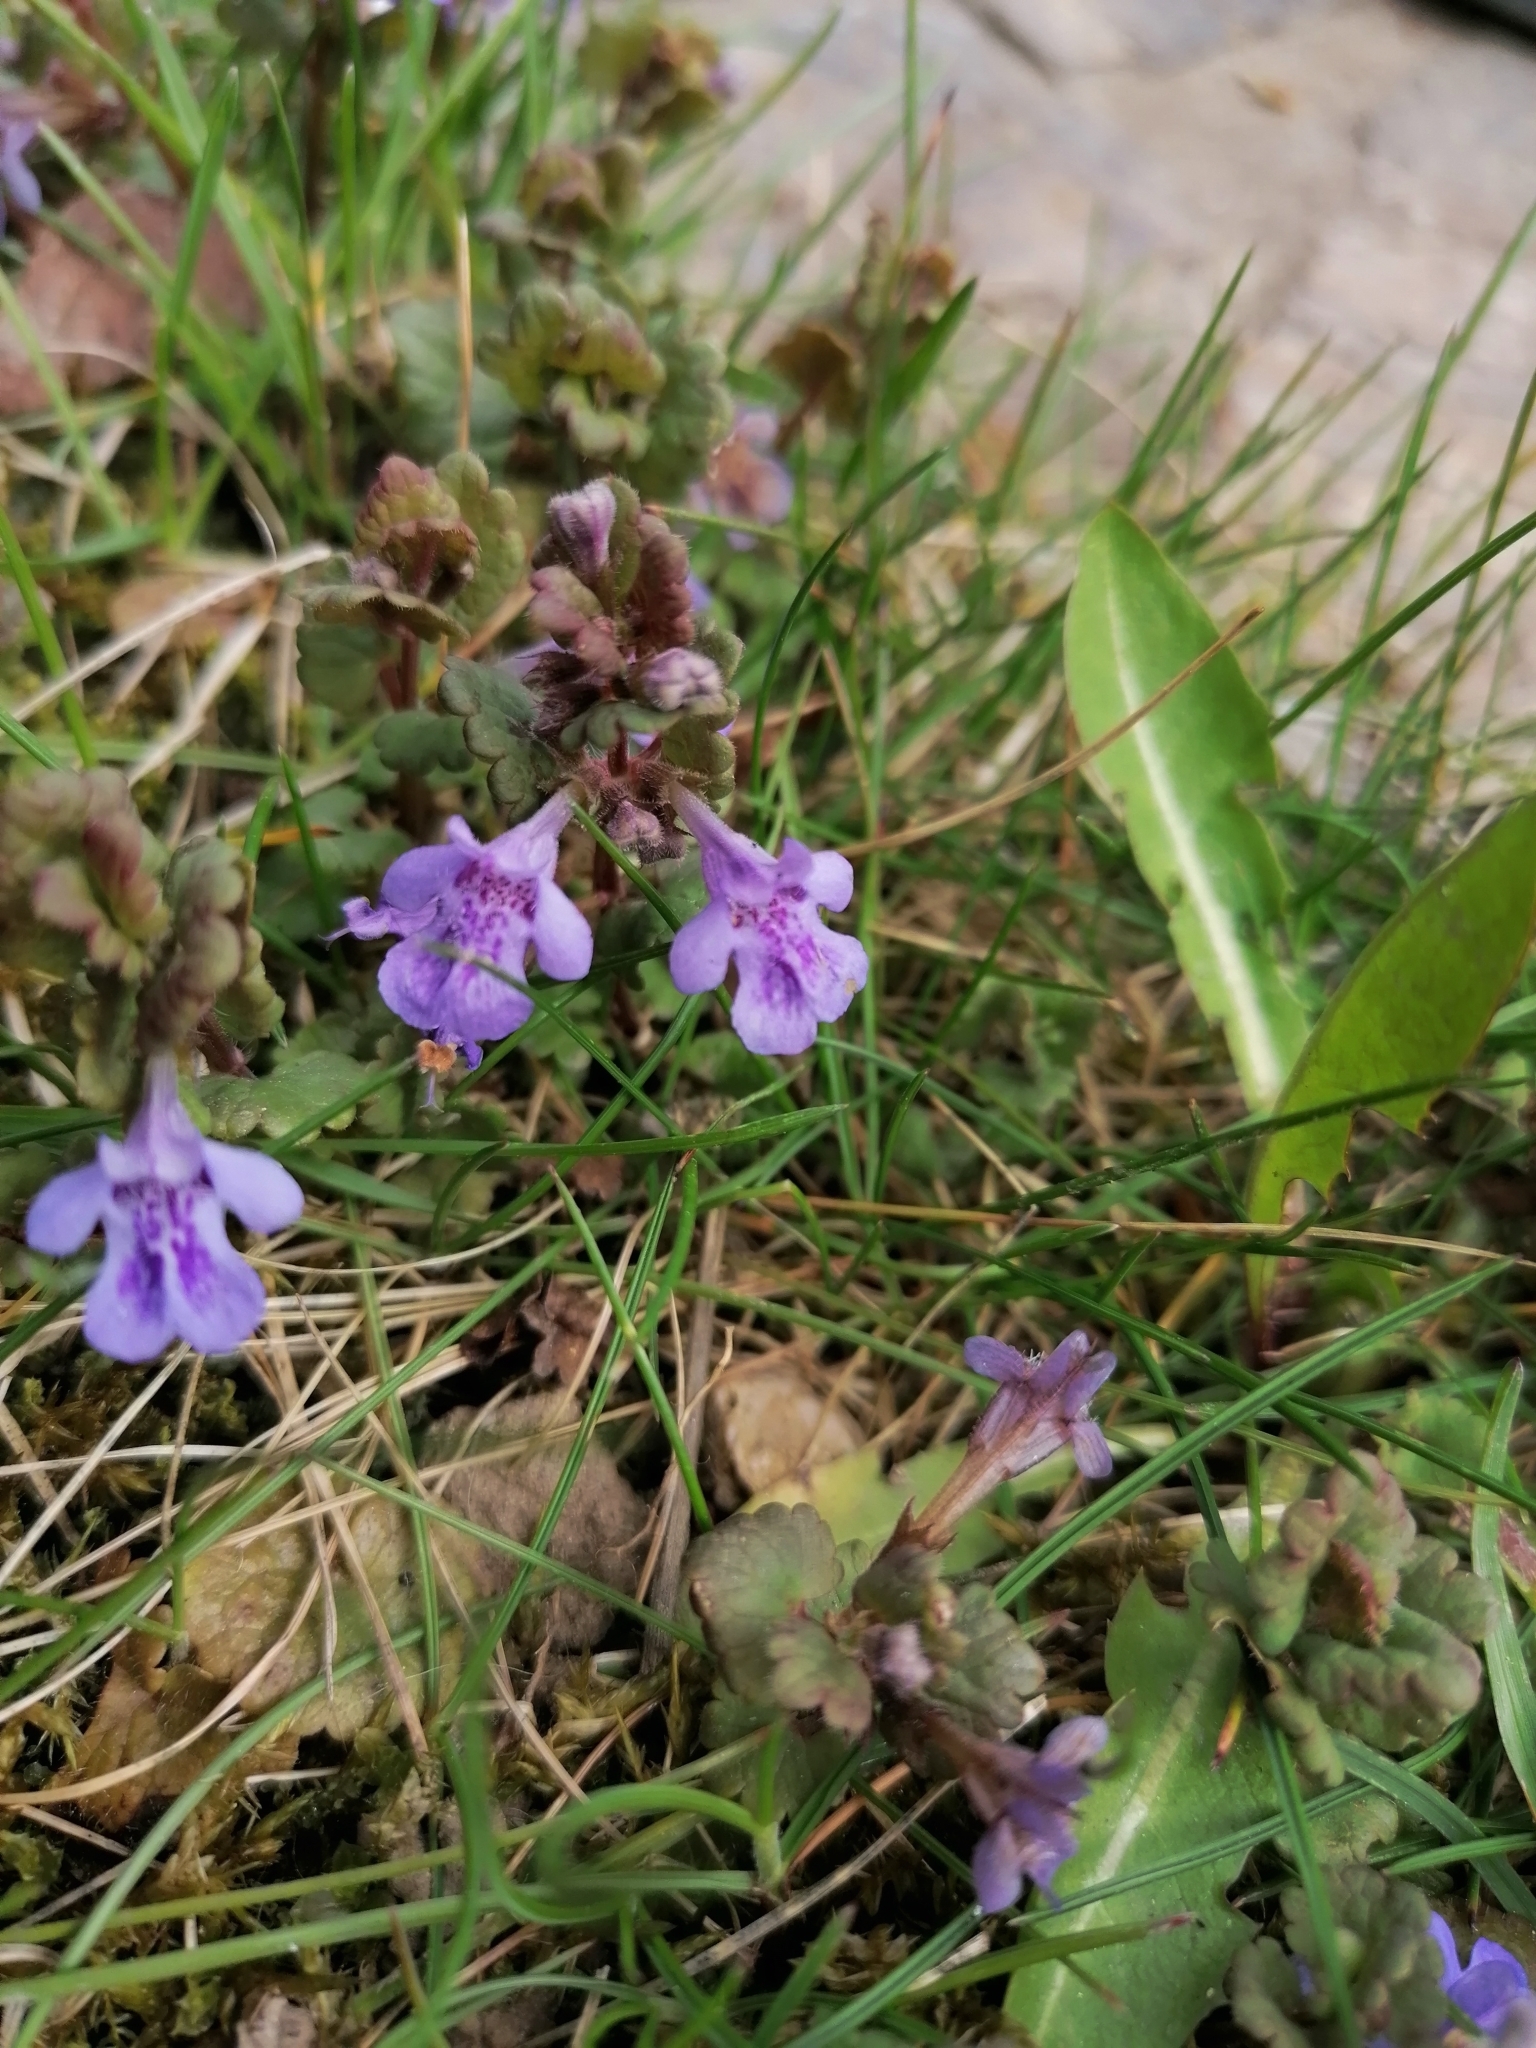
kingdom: Plantae
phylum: Tracheophyta
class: Magnoliopsida
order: Lamiales
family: Lamiaceae
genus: Glechoma
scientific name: Glechoma hederacea
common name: Ground ivy
